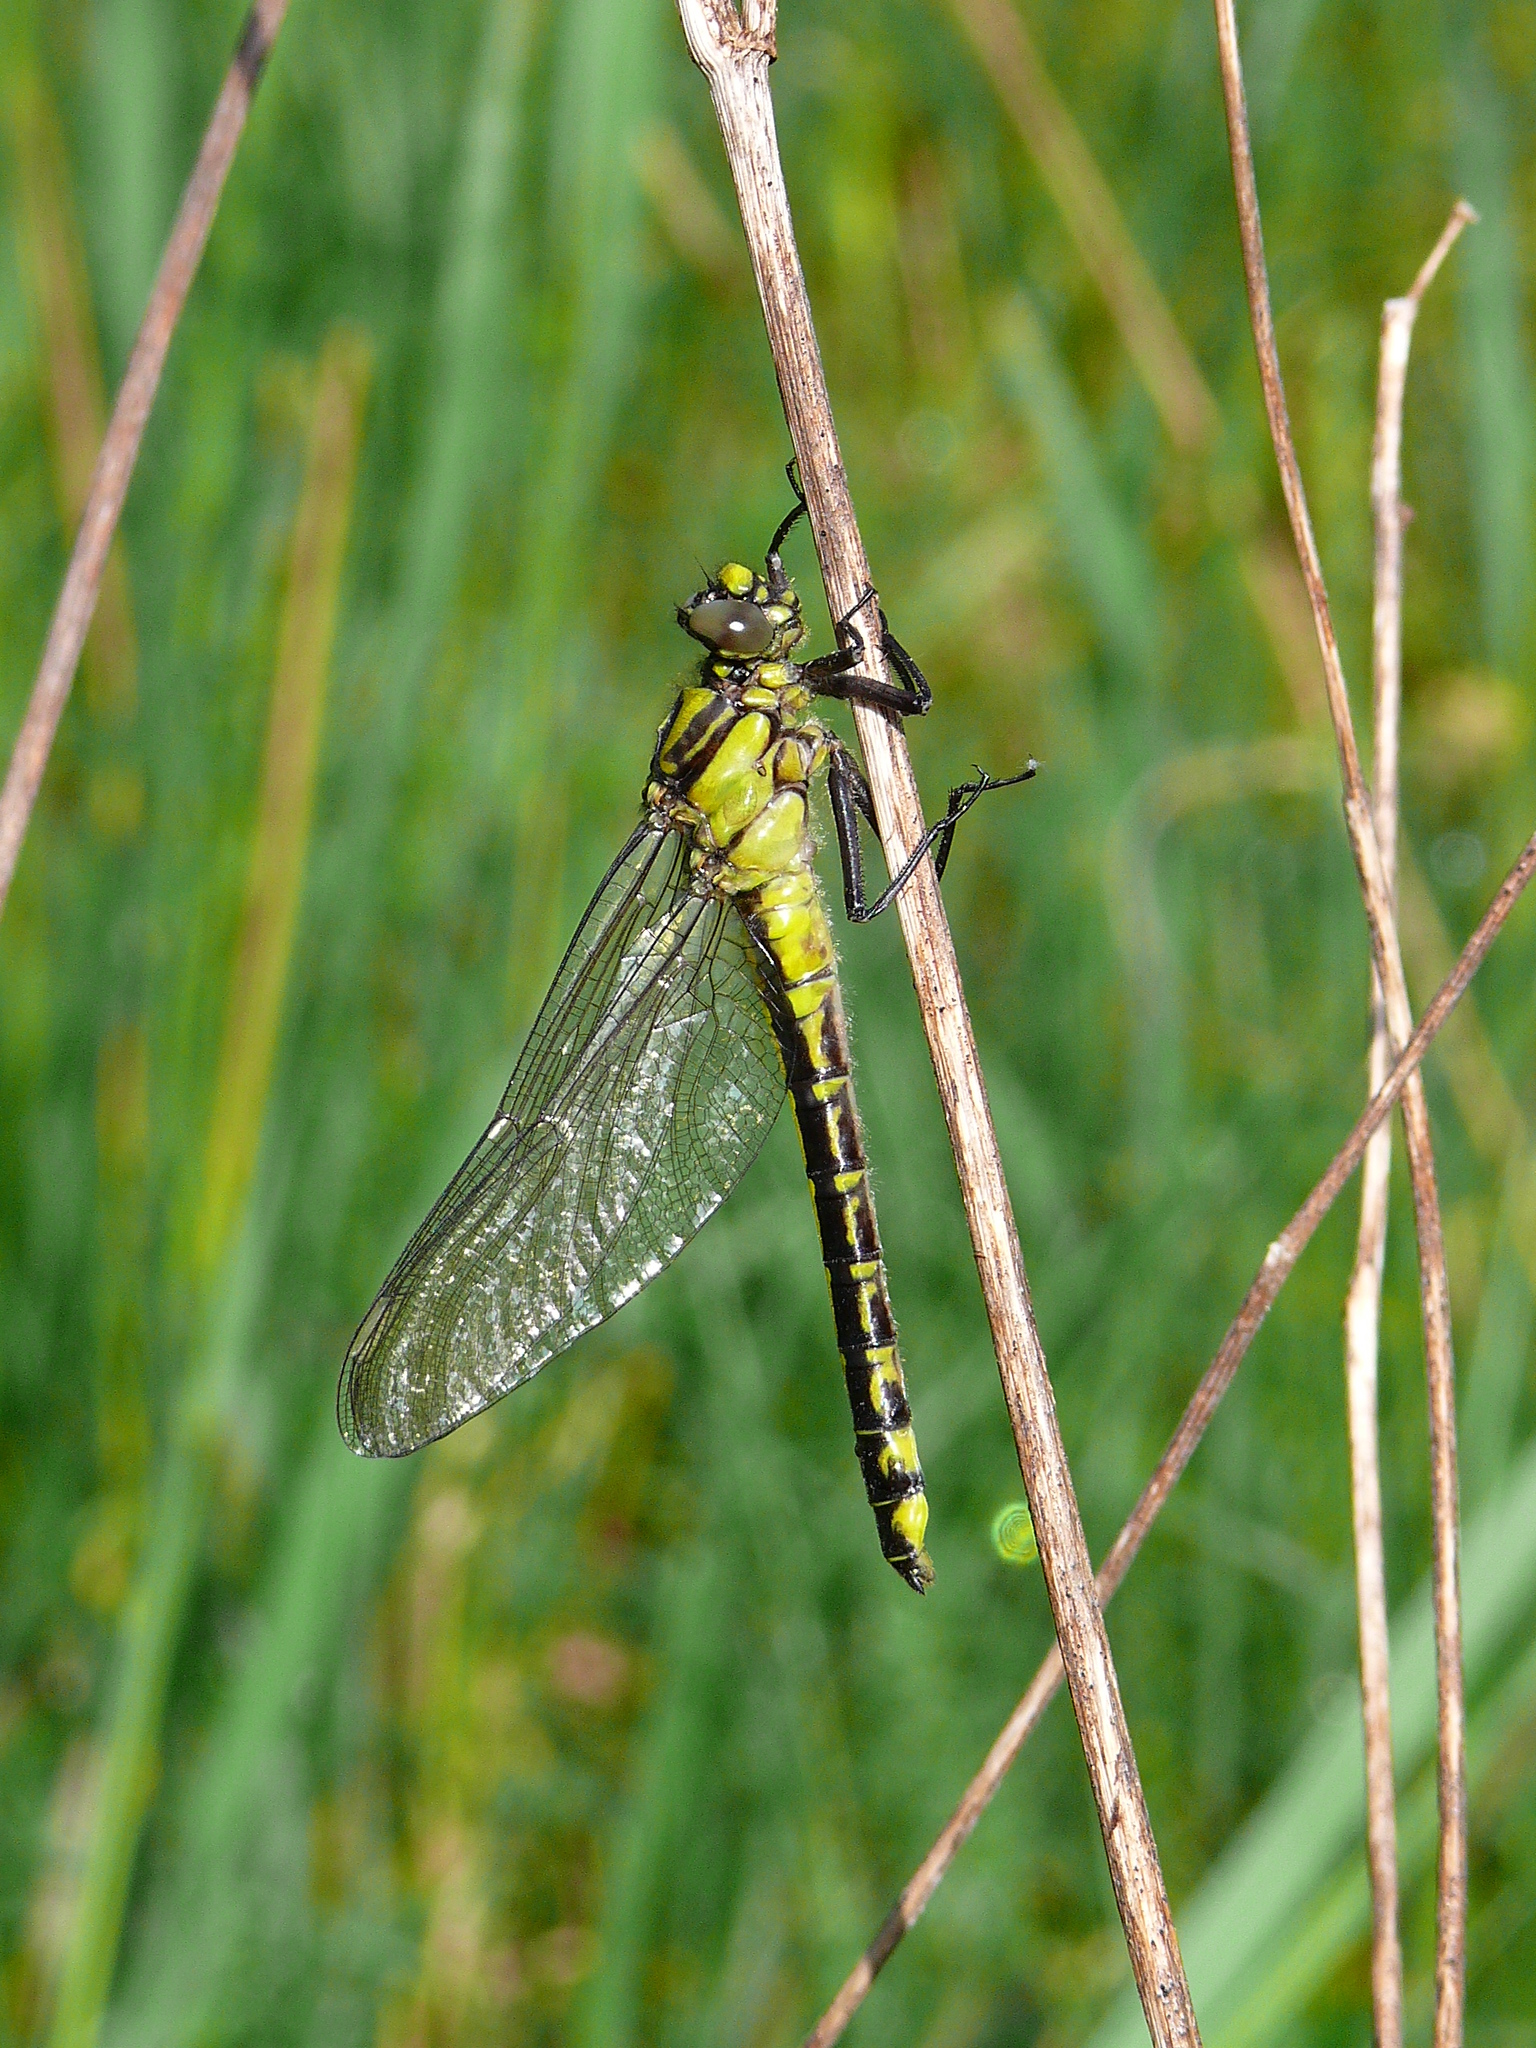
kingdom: Animalia
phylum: Arthropoda
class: Insecta
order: Odonata
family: Gomphidae
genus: Gomphus
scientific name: Gomphus vulgatissimus
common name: Club-tailed dragonfly
